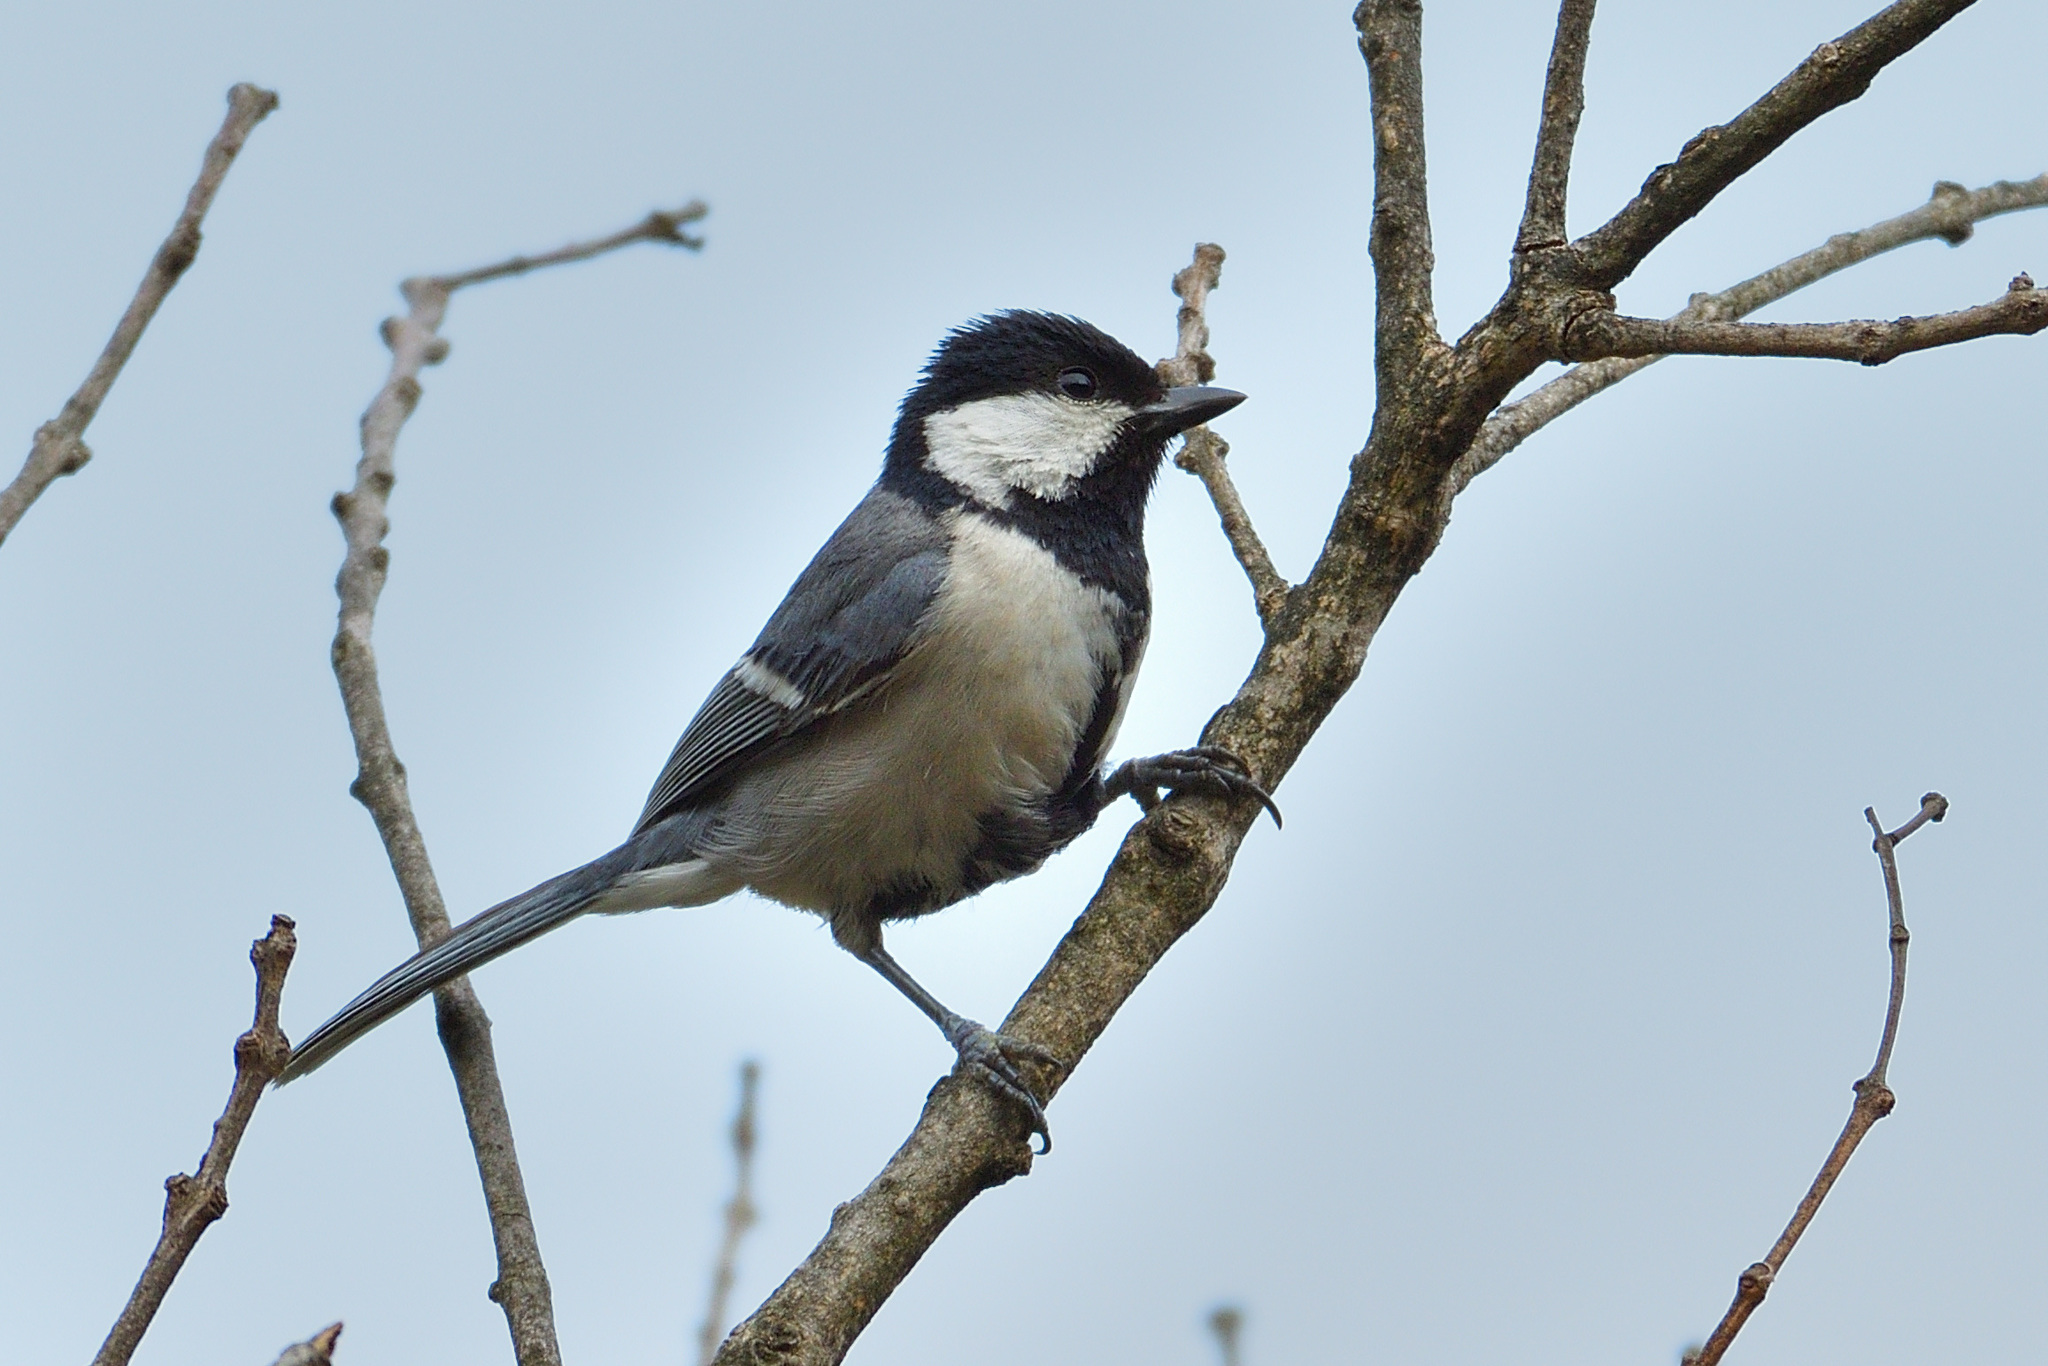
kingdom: Animalia
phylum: Chordata
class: Aves
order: Passeriformes
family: Paridae
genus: Parus
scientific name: Parus cinereus
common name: Cinereous tit
